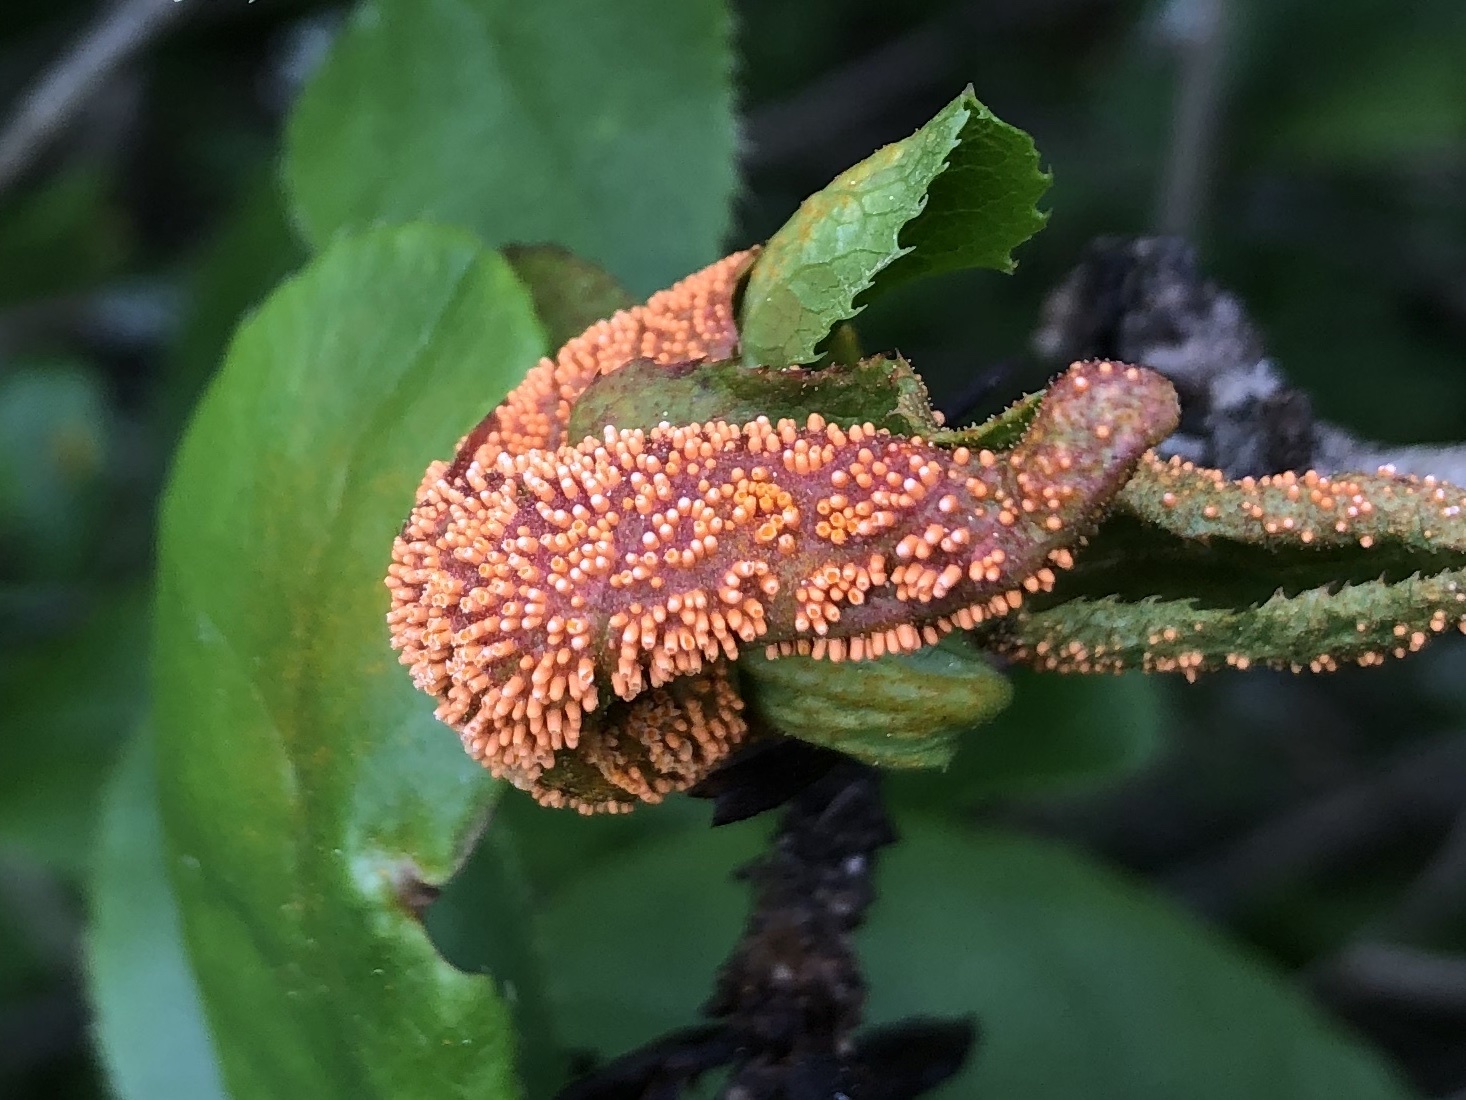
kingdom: Fungi
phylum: Basidiomycota
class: Pucciniomycetes
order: Pucciniales
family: Pucciniaceae
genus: Puccinia
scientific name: Puccinia graminis
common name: Black stem rust
